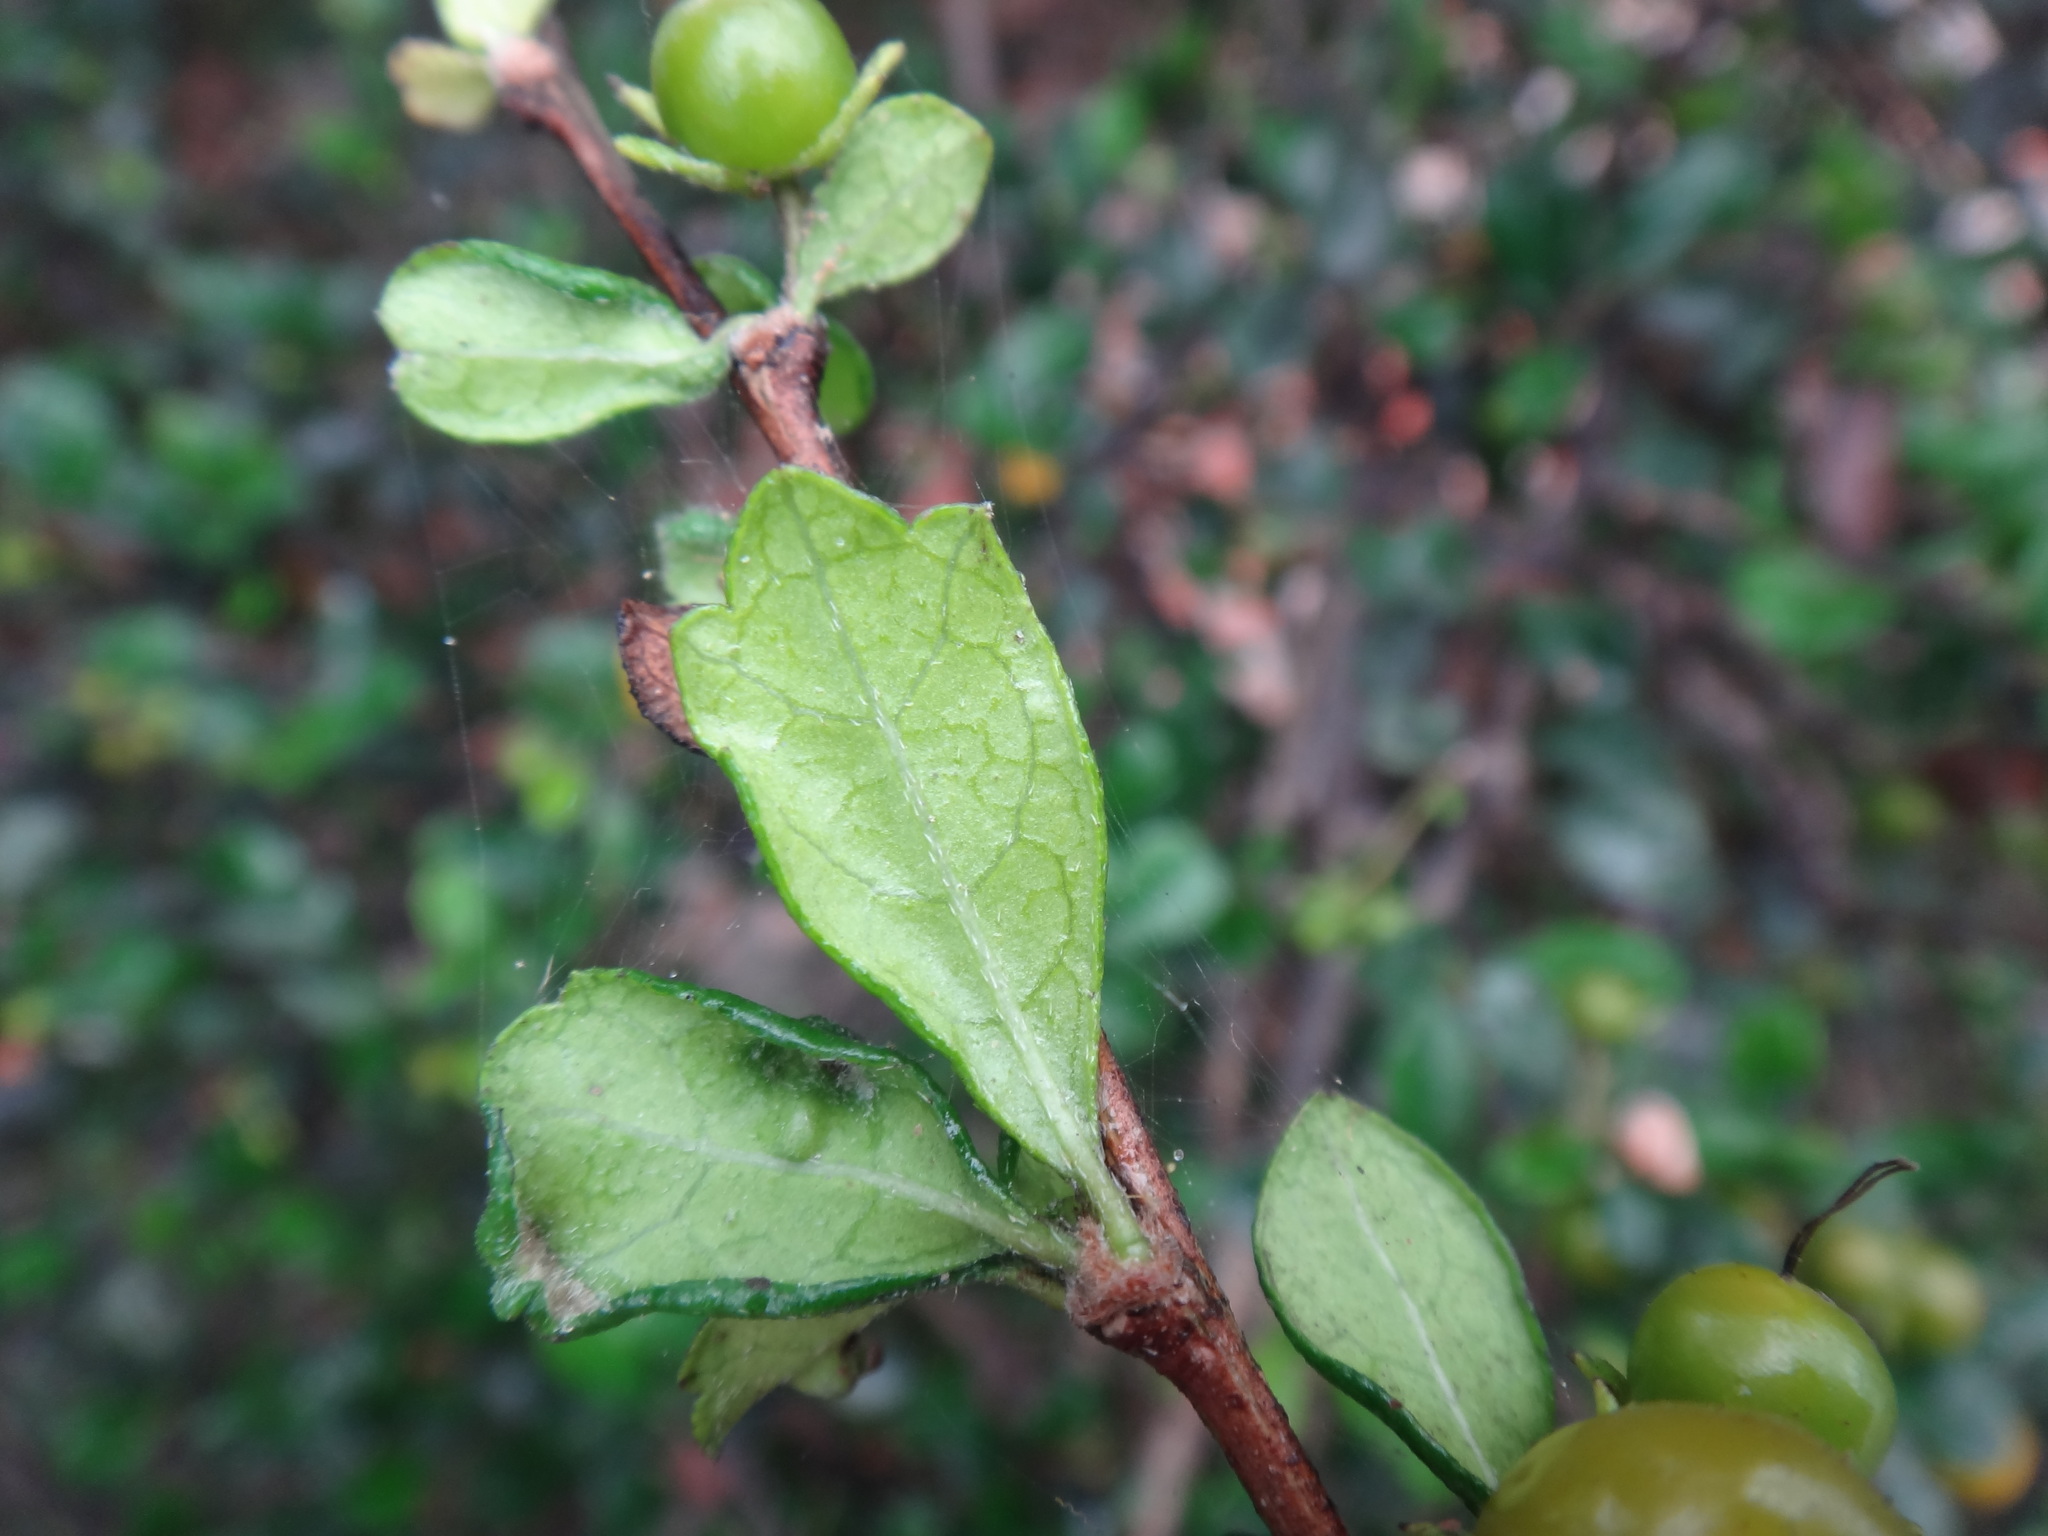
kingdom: Plantae
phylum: Tracheophyta
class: Magnoliopsida
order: Boraginales
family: Ehretiaceae
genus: Ehretia
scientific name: Ehretia microphylla
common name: Fukien-tea
